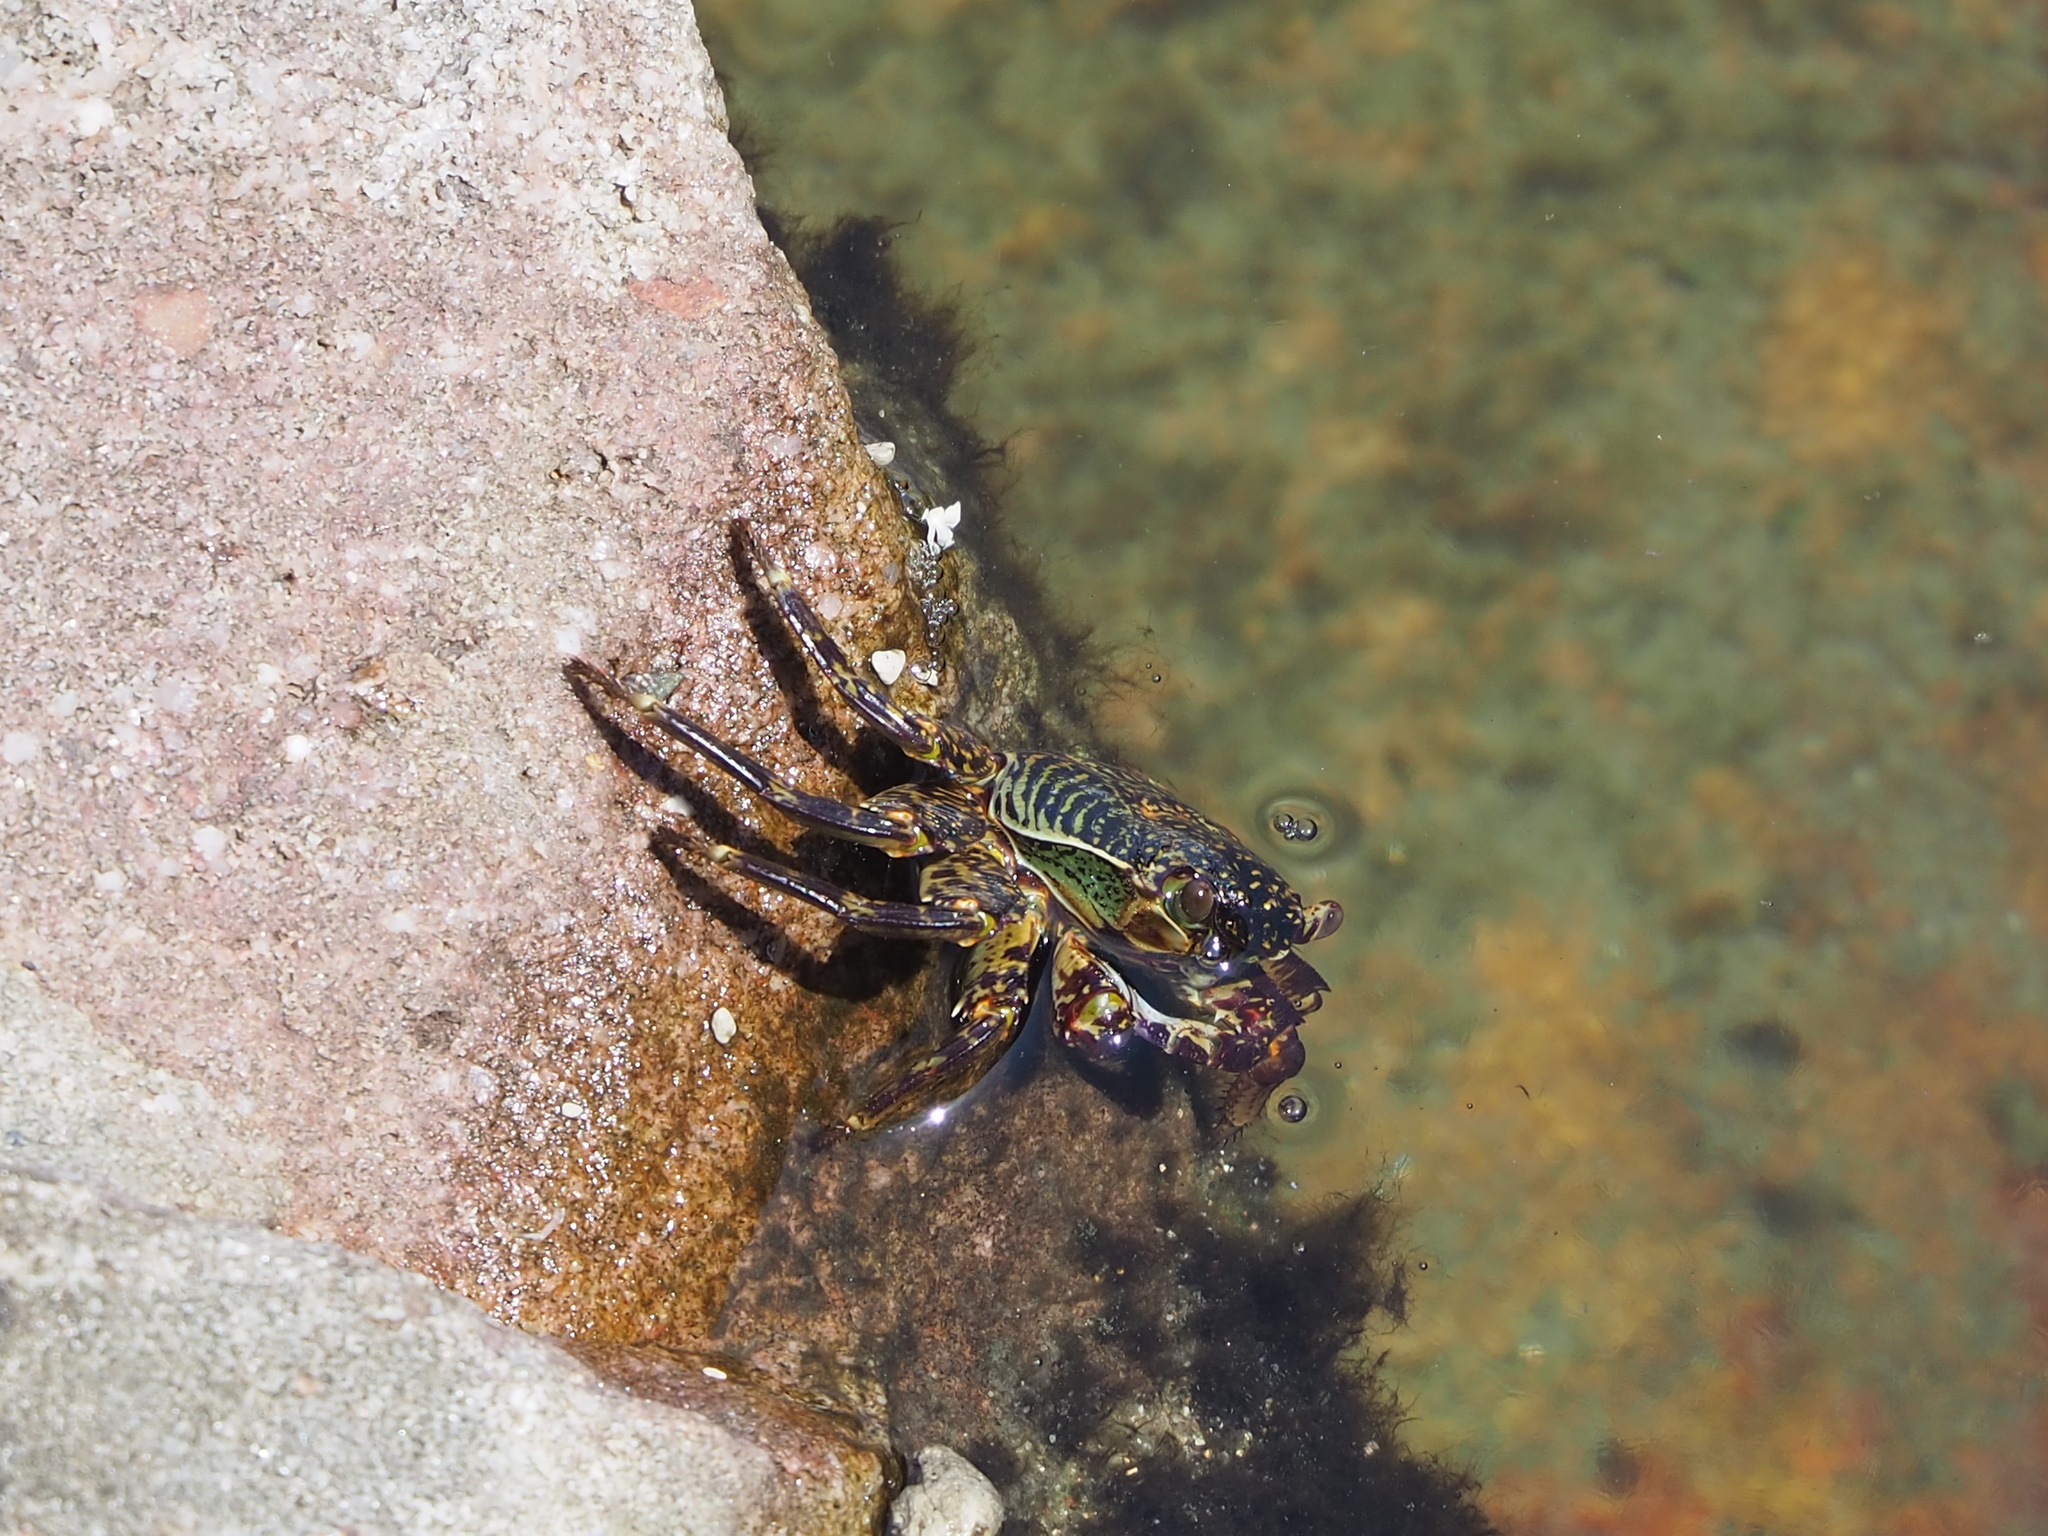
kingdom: Animalia
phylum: Arthropoda
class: Malacostraca
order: Decapoda
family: Grapsidae
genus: Grapsus
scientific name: Grapsus albolineatus
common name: Mottled lightfoot crab
